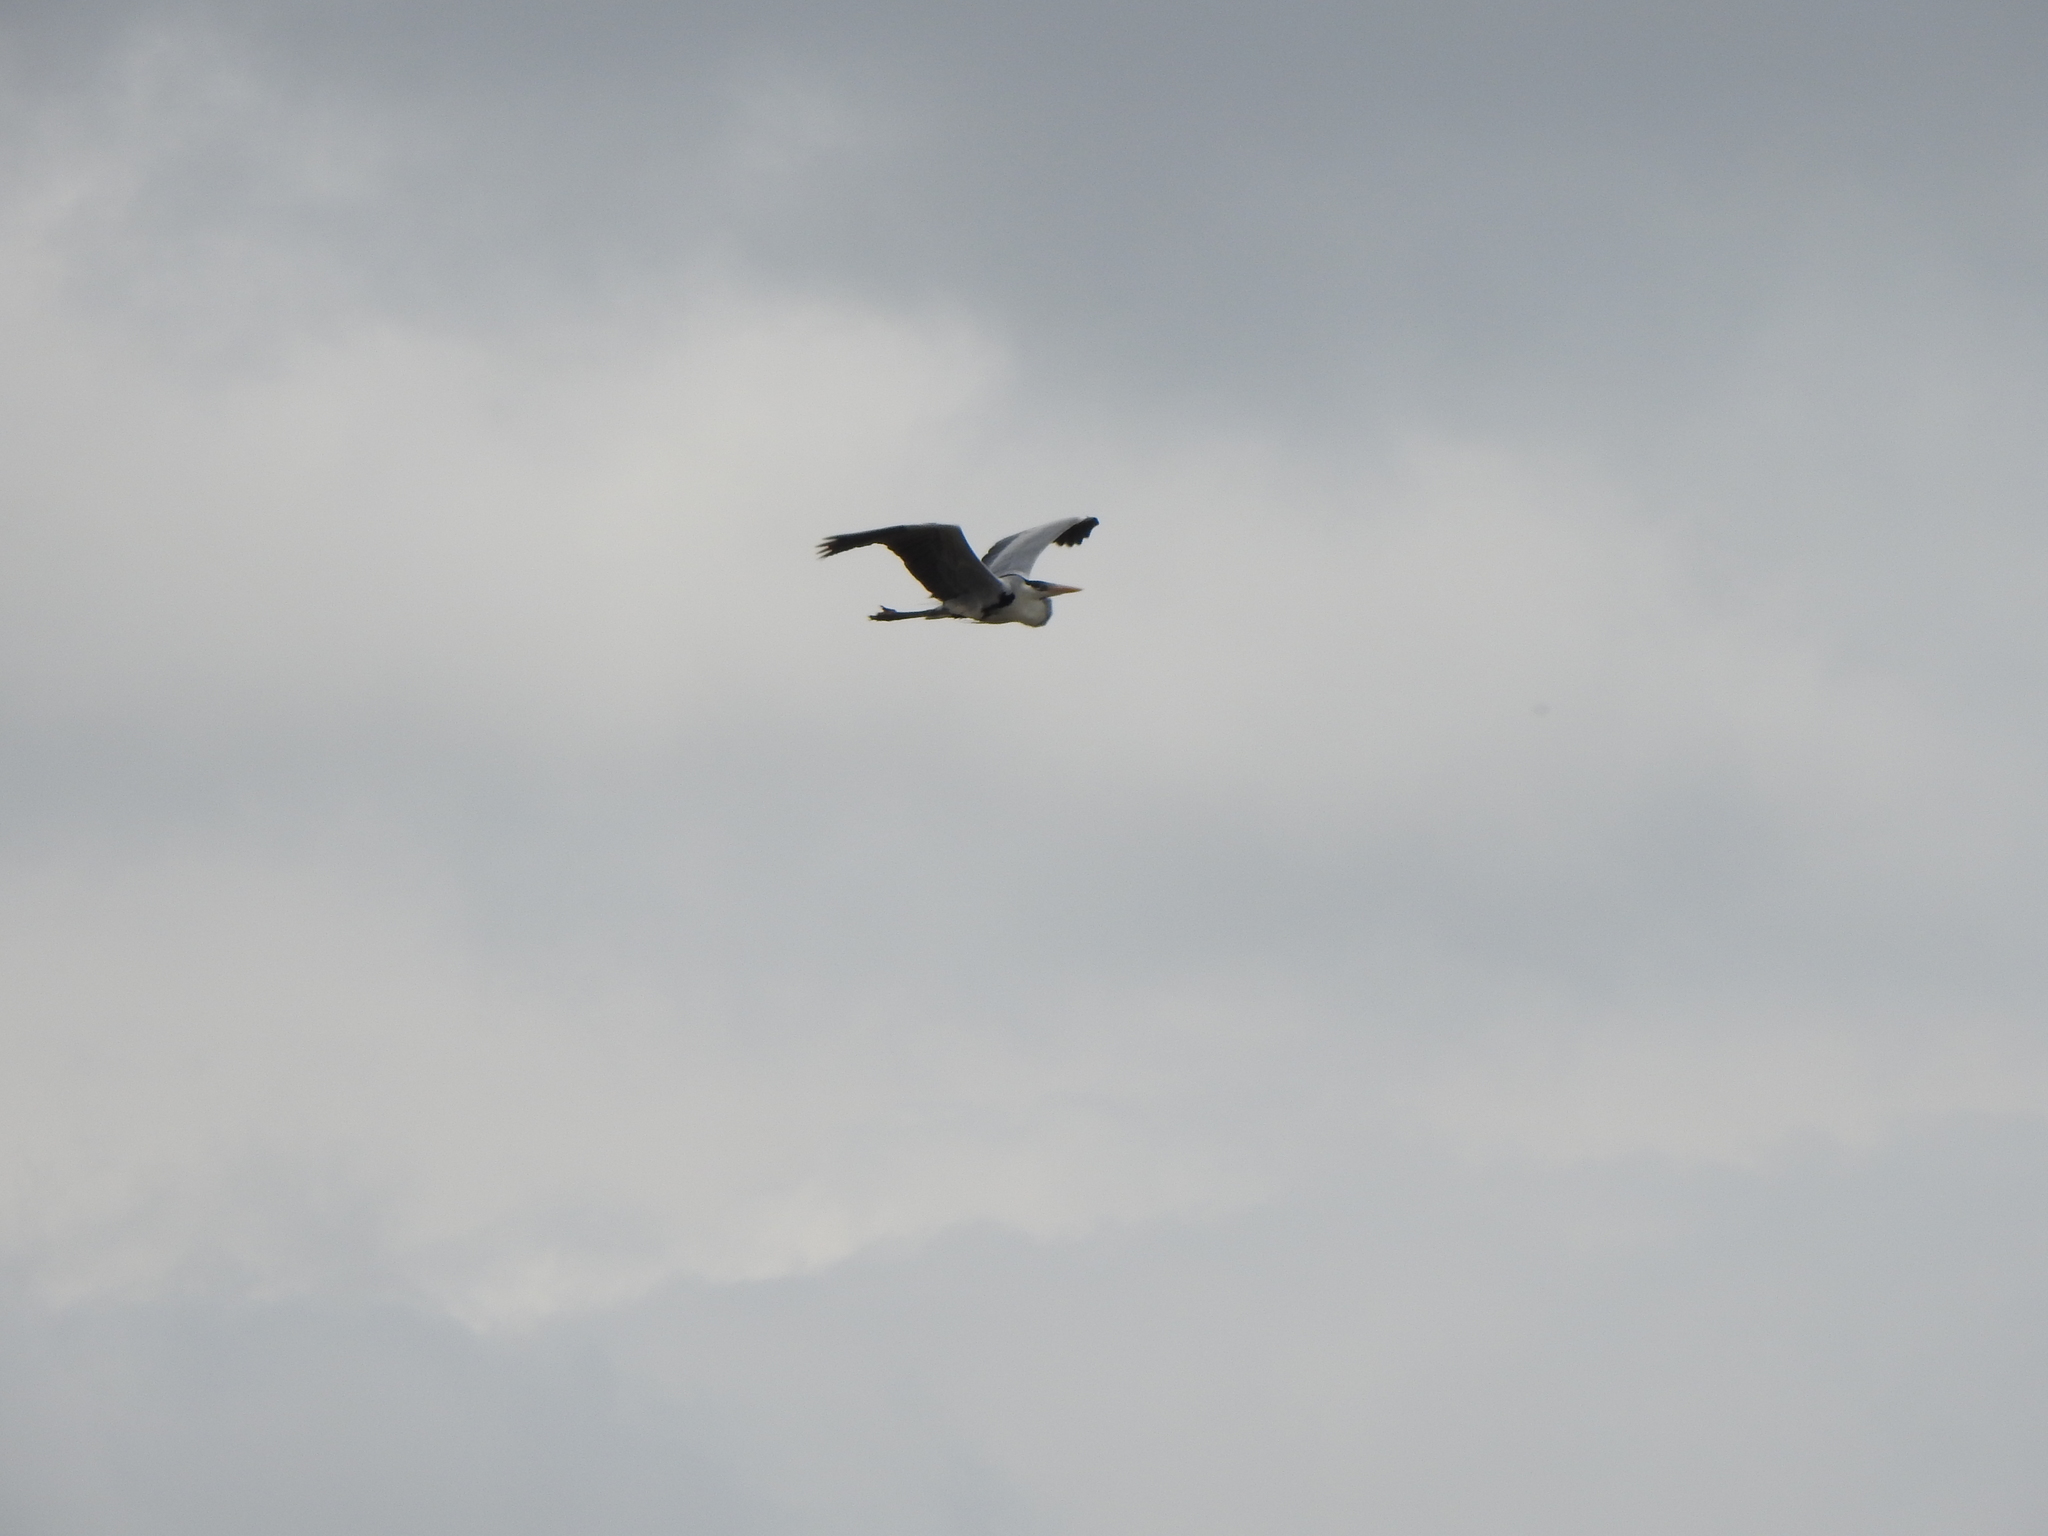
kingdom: Animalia
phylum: Chordata
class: Aves
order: Pelecaniformes
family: Ardeidae
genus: Ardea
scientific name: Ardea cocoi
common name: Cocoi heron
